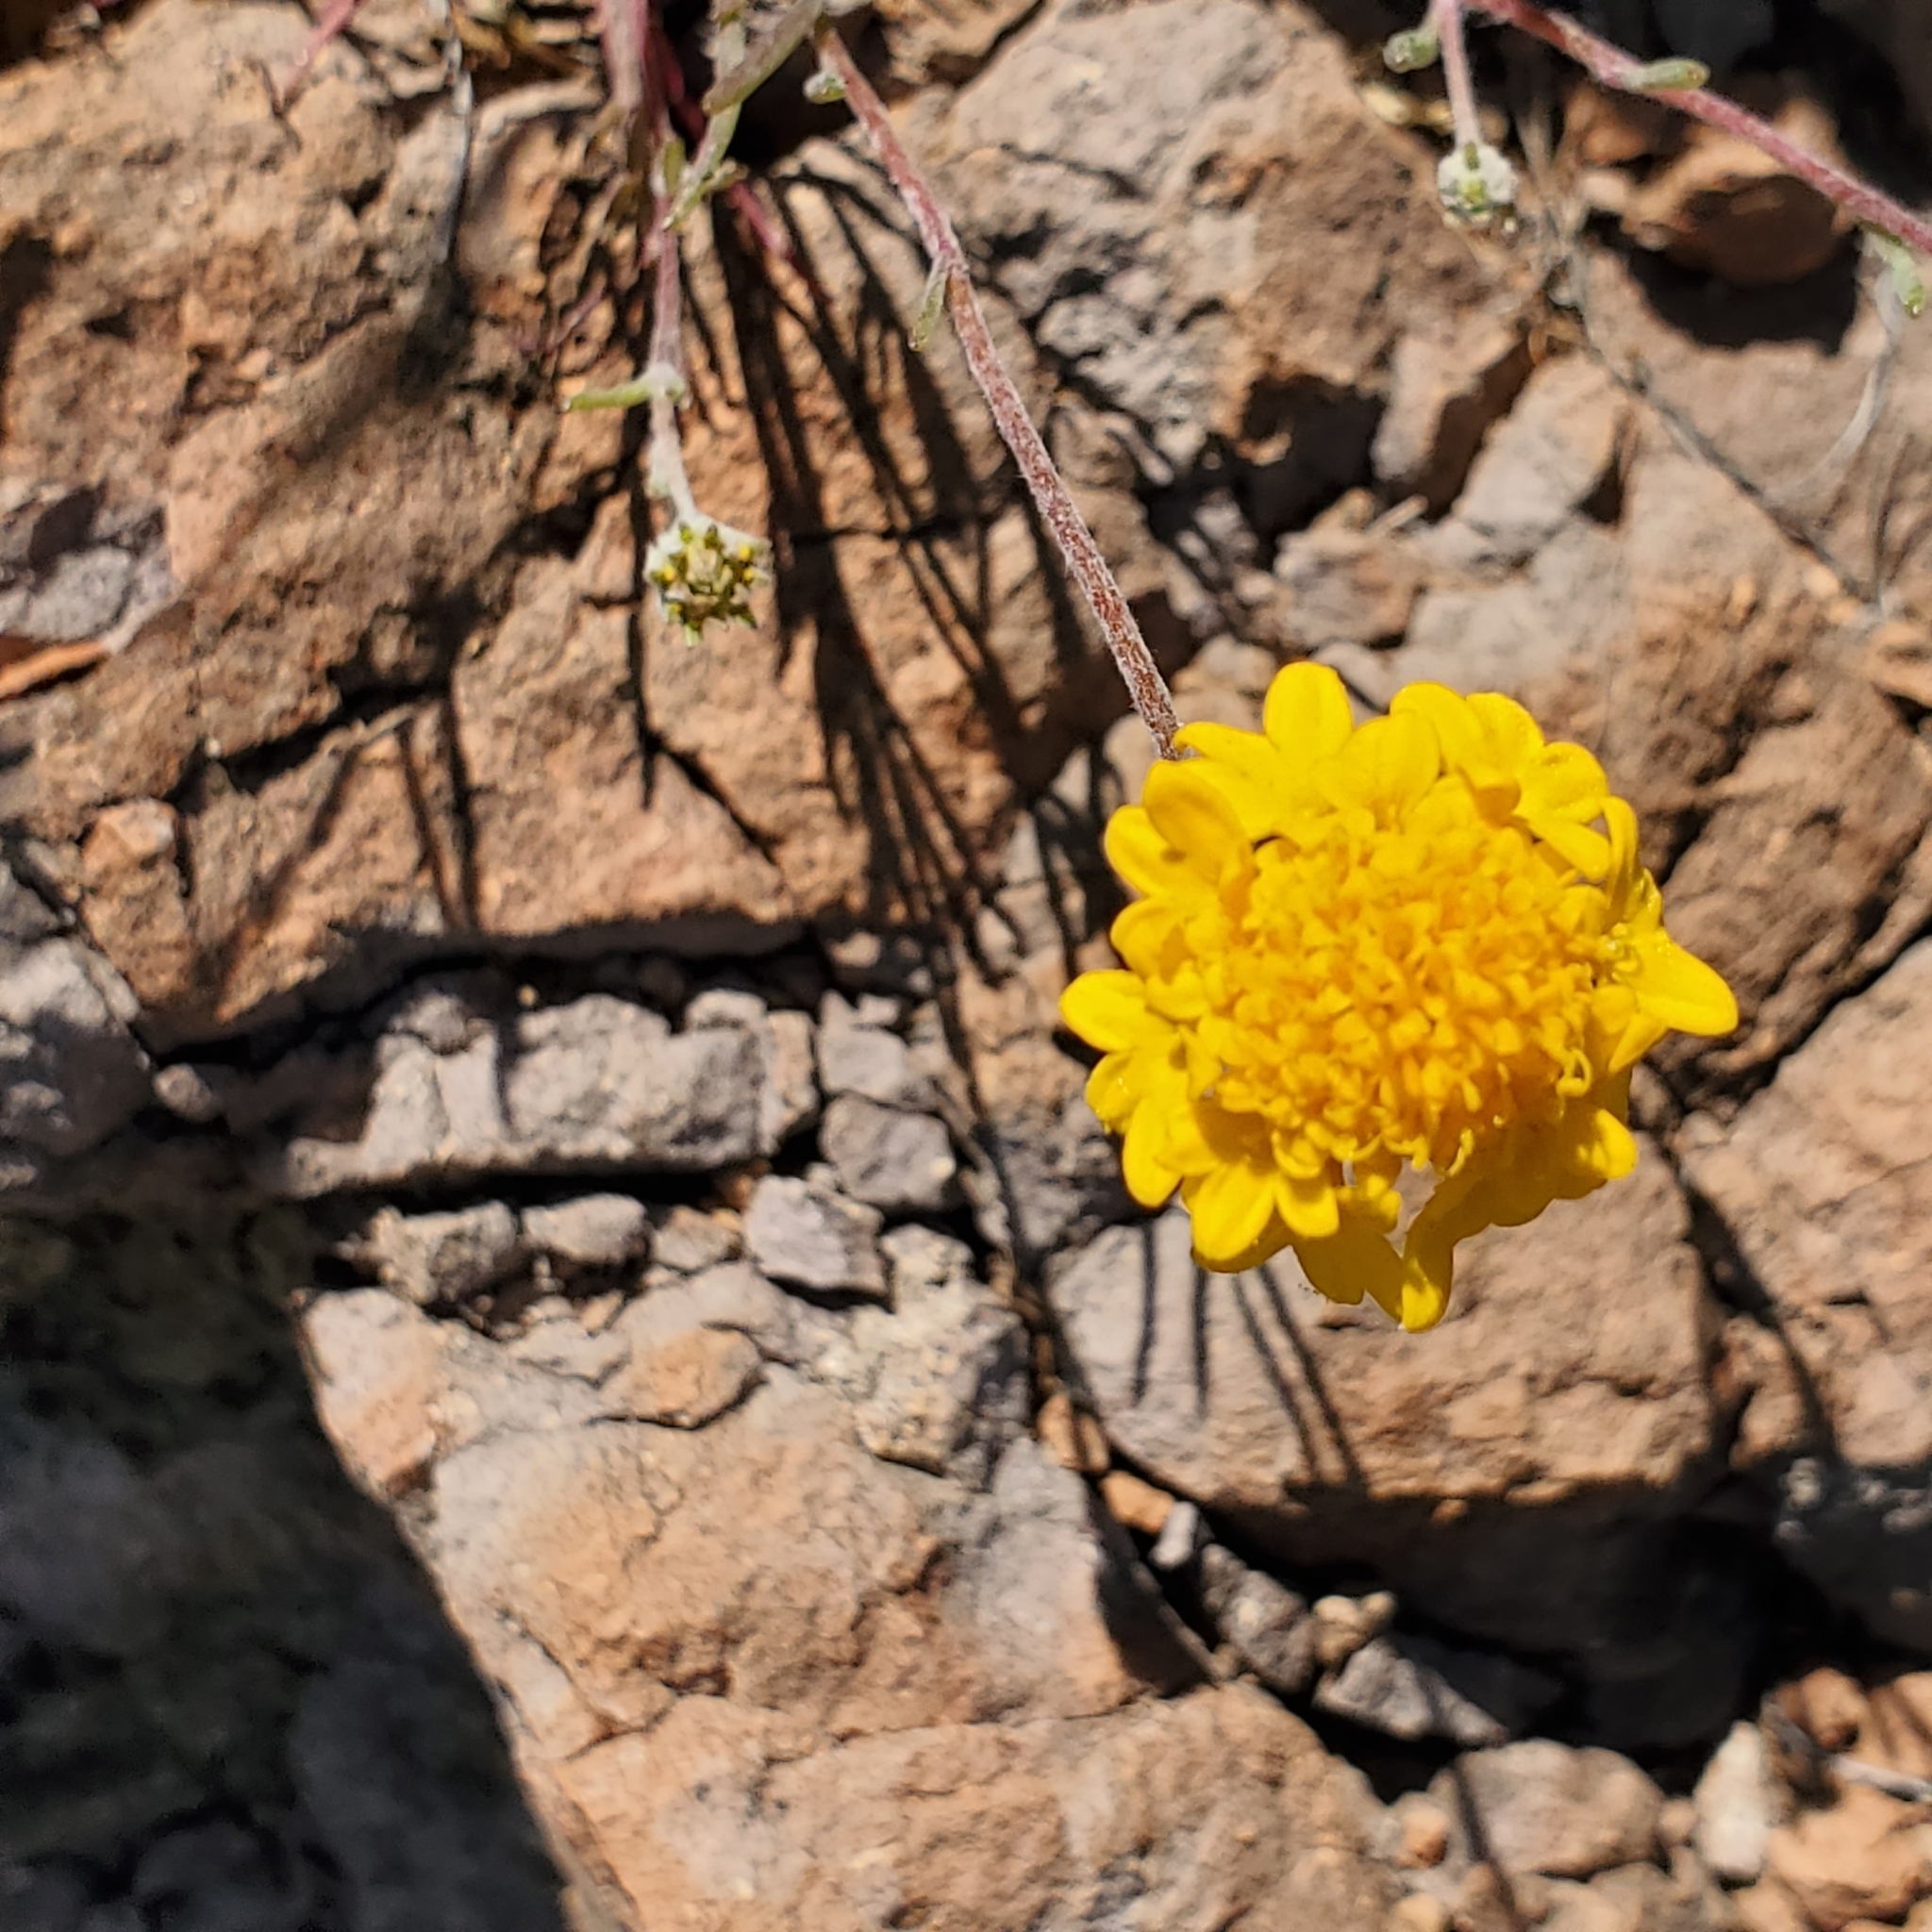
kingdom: Plantae
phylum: Tracheophyta
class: Magnoliopsida
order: Asterales
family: Asteraceae
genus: Chaenactis
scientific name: Chaenactis glabriuscula
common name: Yellow pincushion
